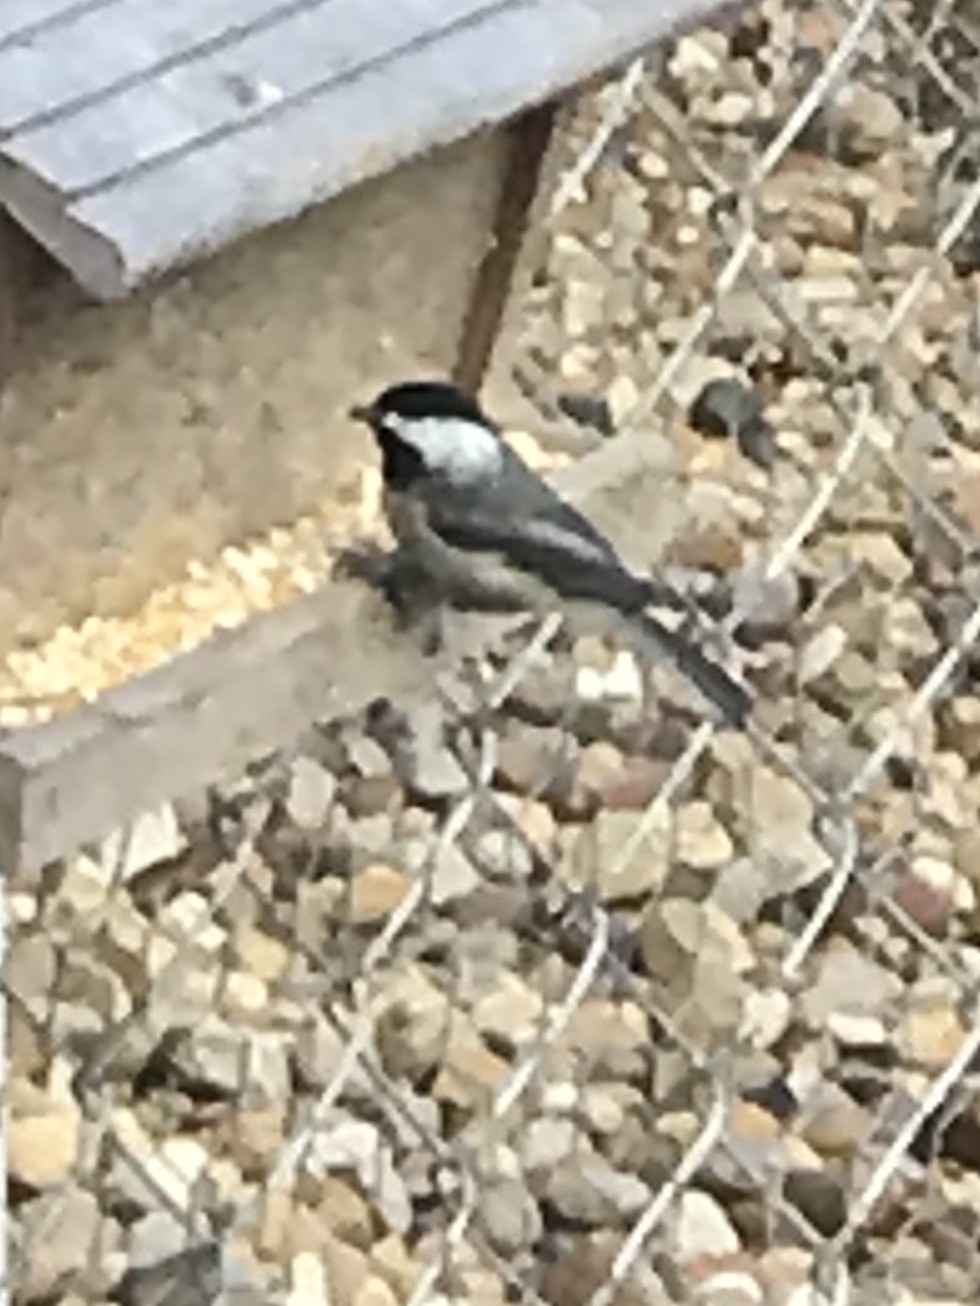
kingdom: Animalia
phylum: Chordata
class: Aves
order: Passeriformes
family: Paridae
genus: Poecile
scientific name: Poecile carolinensis
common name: Carolina chickadee
